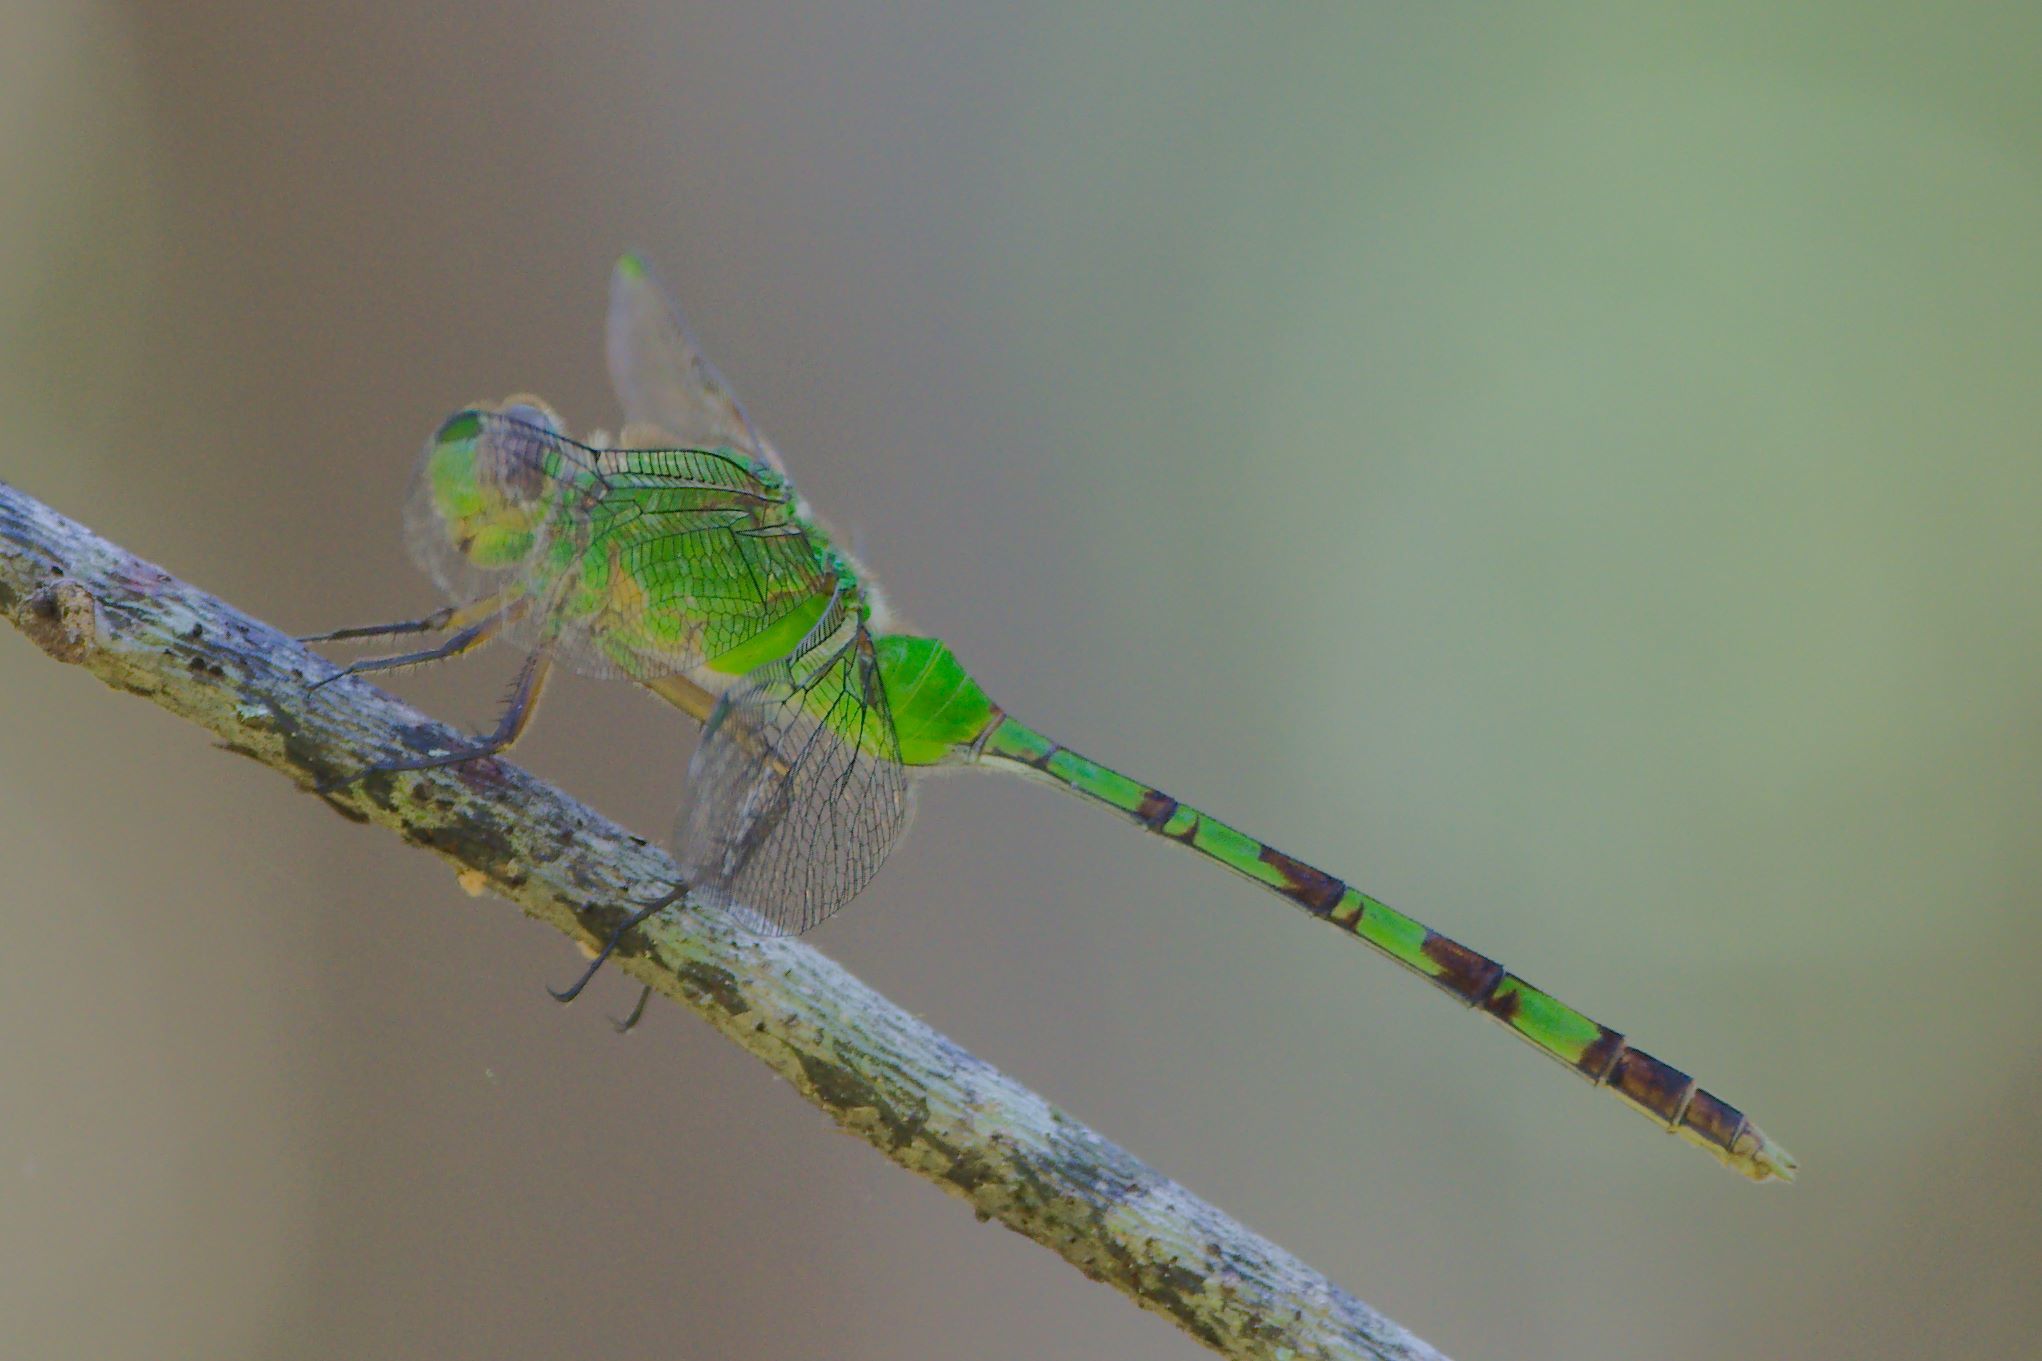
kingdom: Animalia
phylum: Arthropoda
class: Insecta
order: Odonata
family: Libellulidae
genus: Erythemis
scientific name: Erythemis vesiculosa
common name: Great pondhawk
